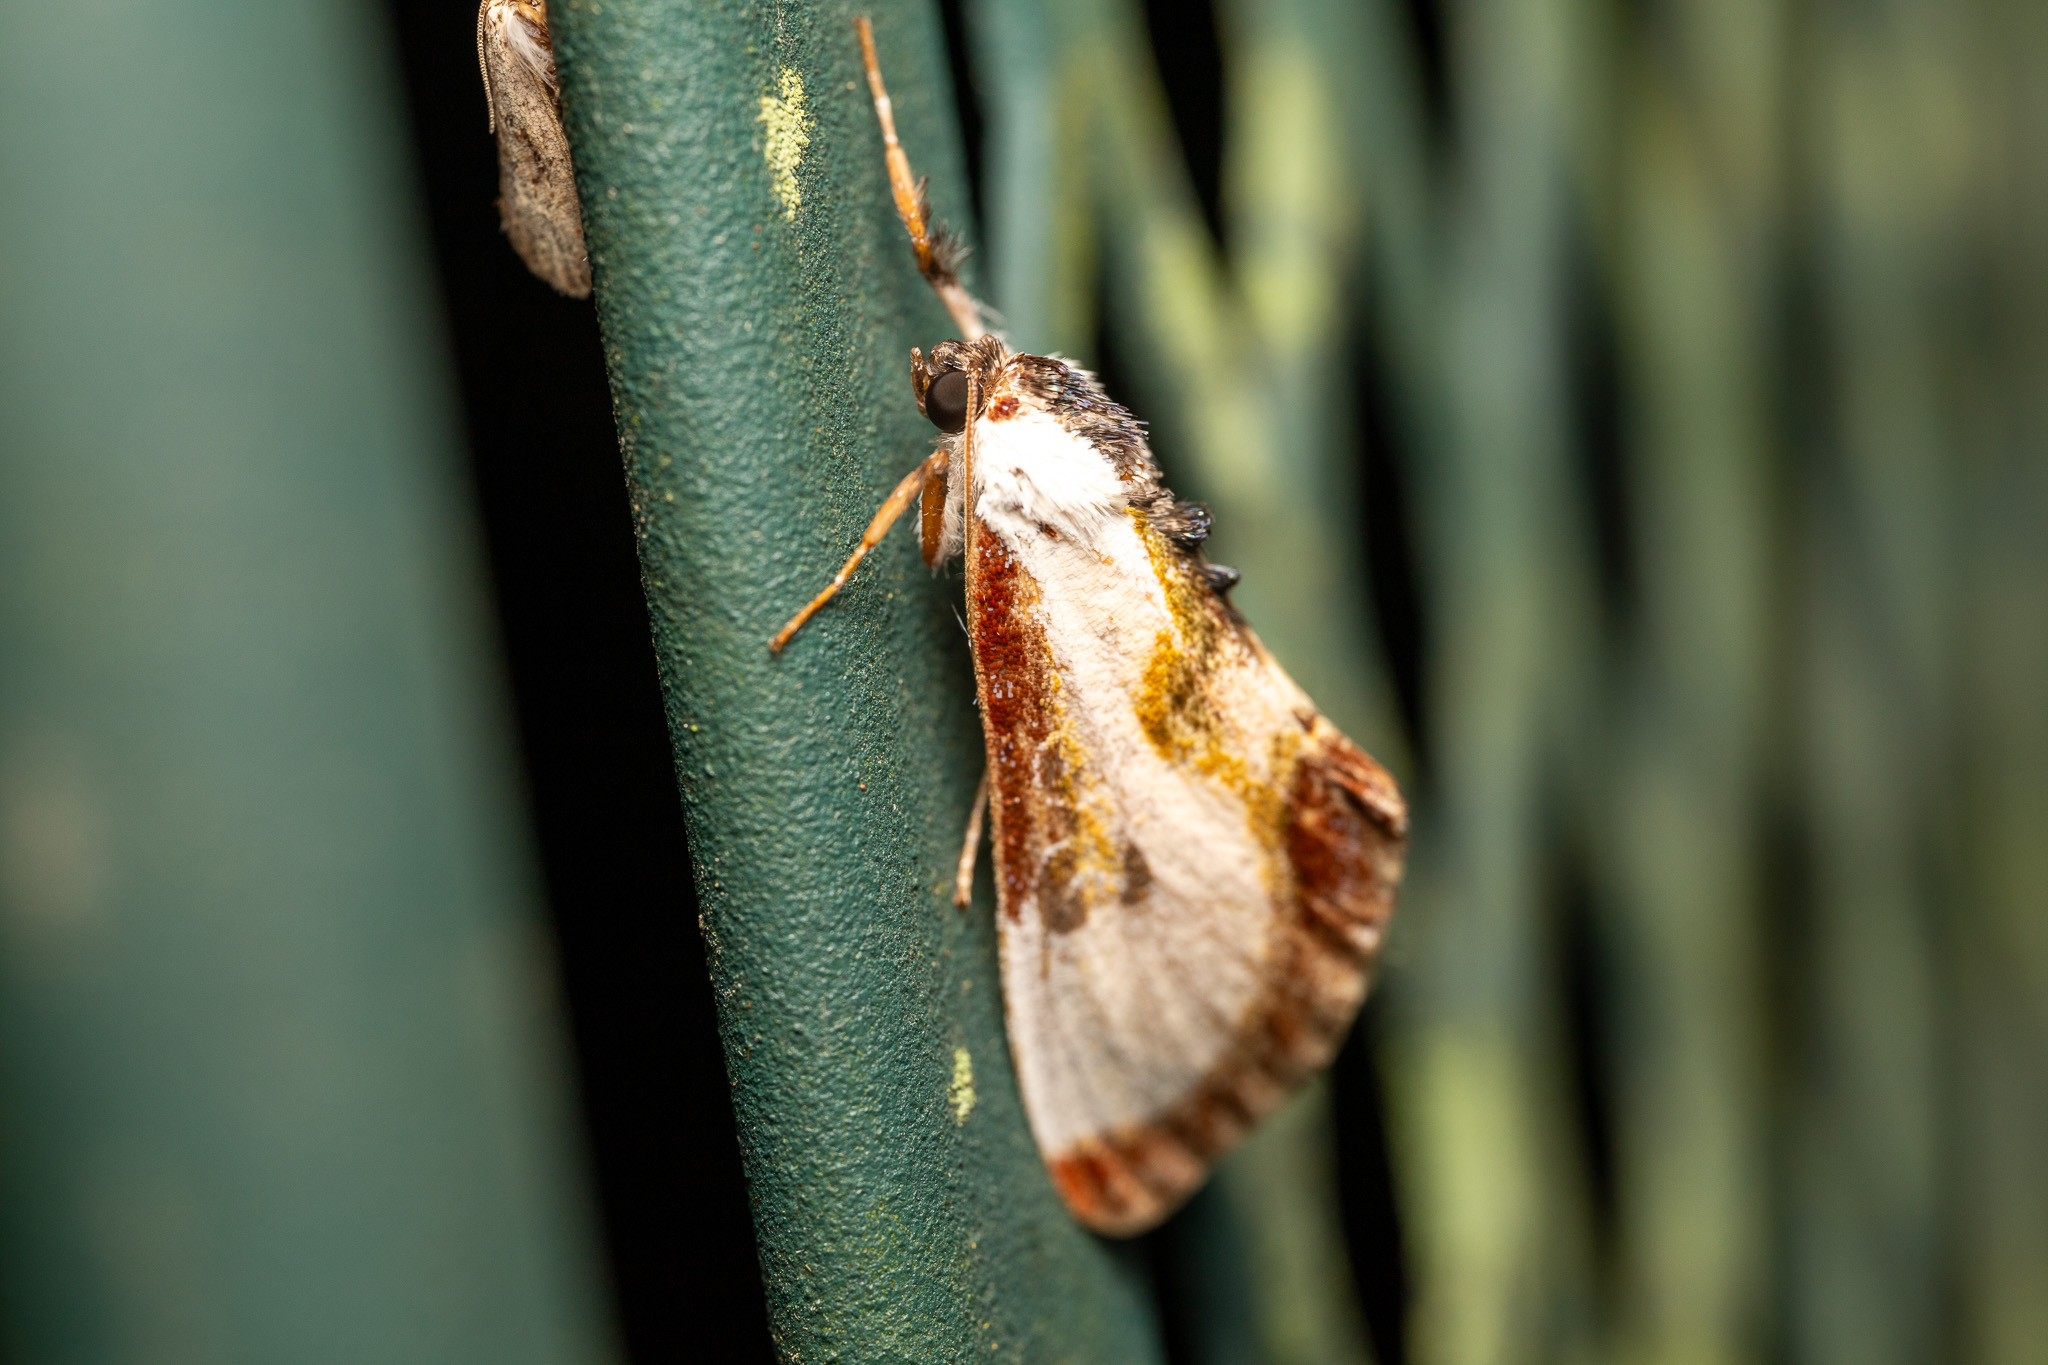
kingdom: Animalia
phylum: Arthropoda
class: Insecta
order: Lepidoptera
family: Noctuidae
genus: Eudryas
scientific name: Eudryas grata
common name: Beautiful wood-nymph
